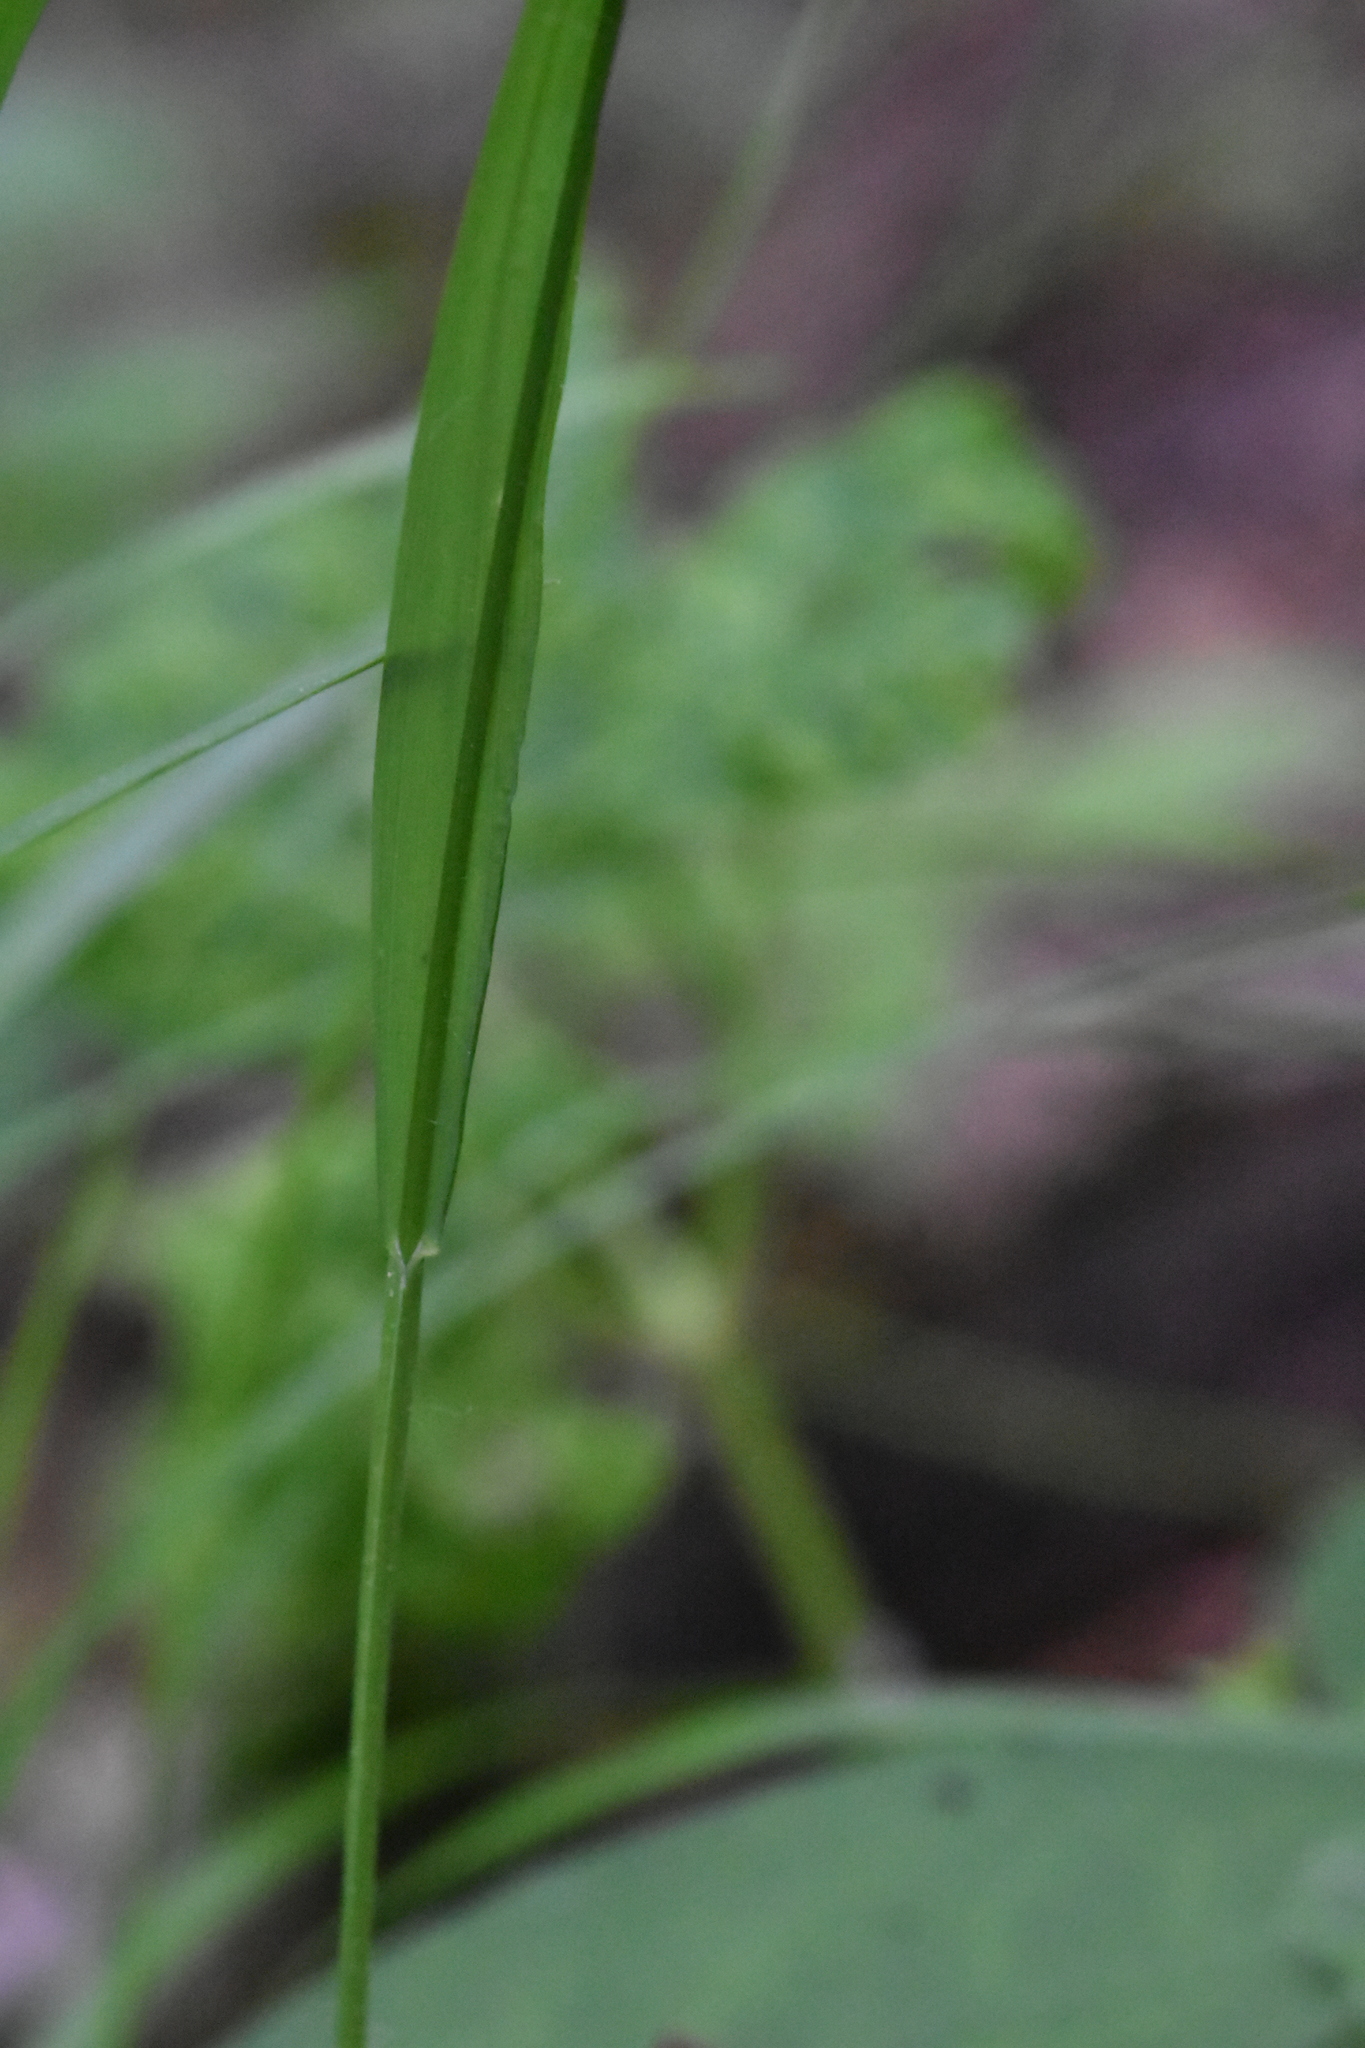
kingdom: Plantae
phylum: Tracheophyta
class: Liliopsida
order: Poales
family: Poaceae
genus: Melica
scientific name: Melica nutans
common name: Mountain melick
